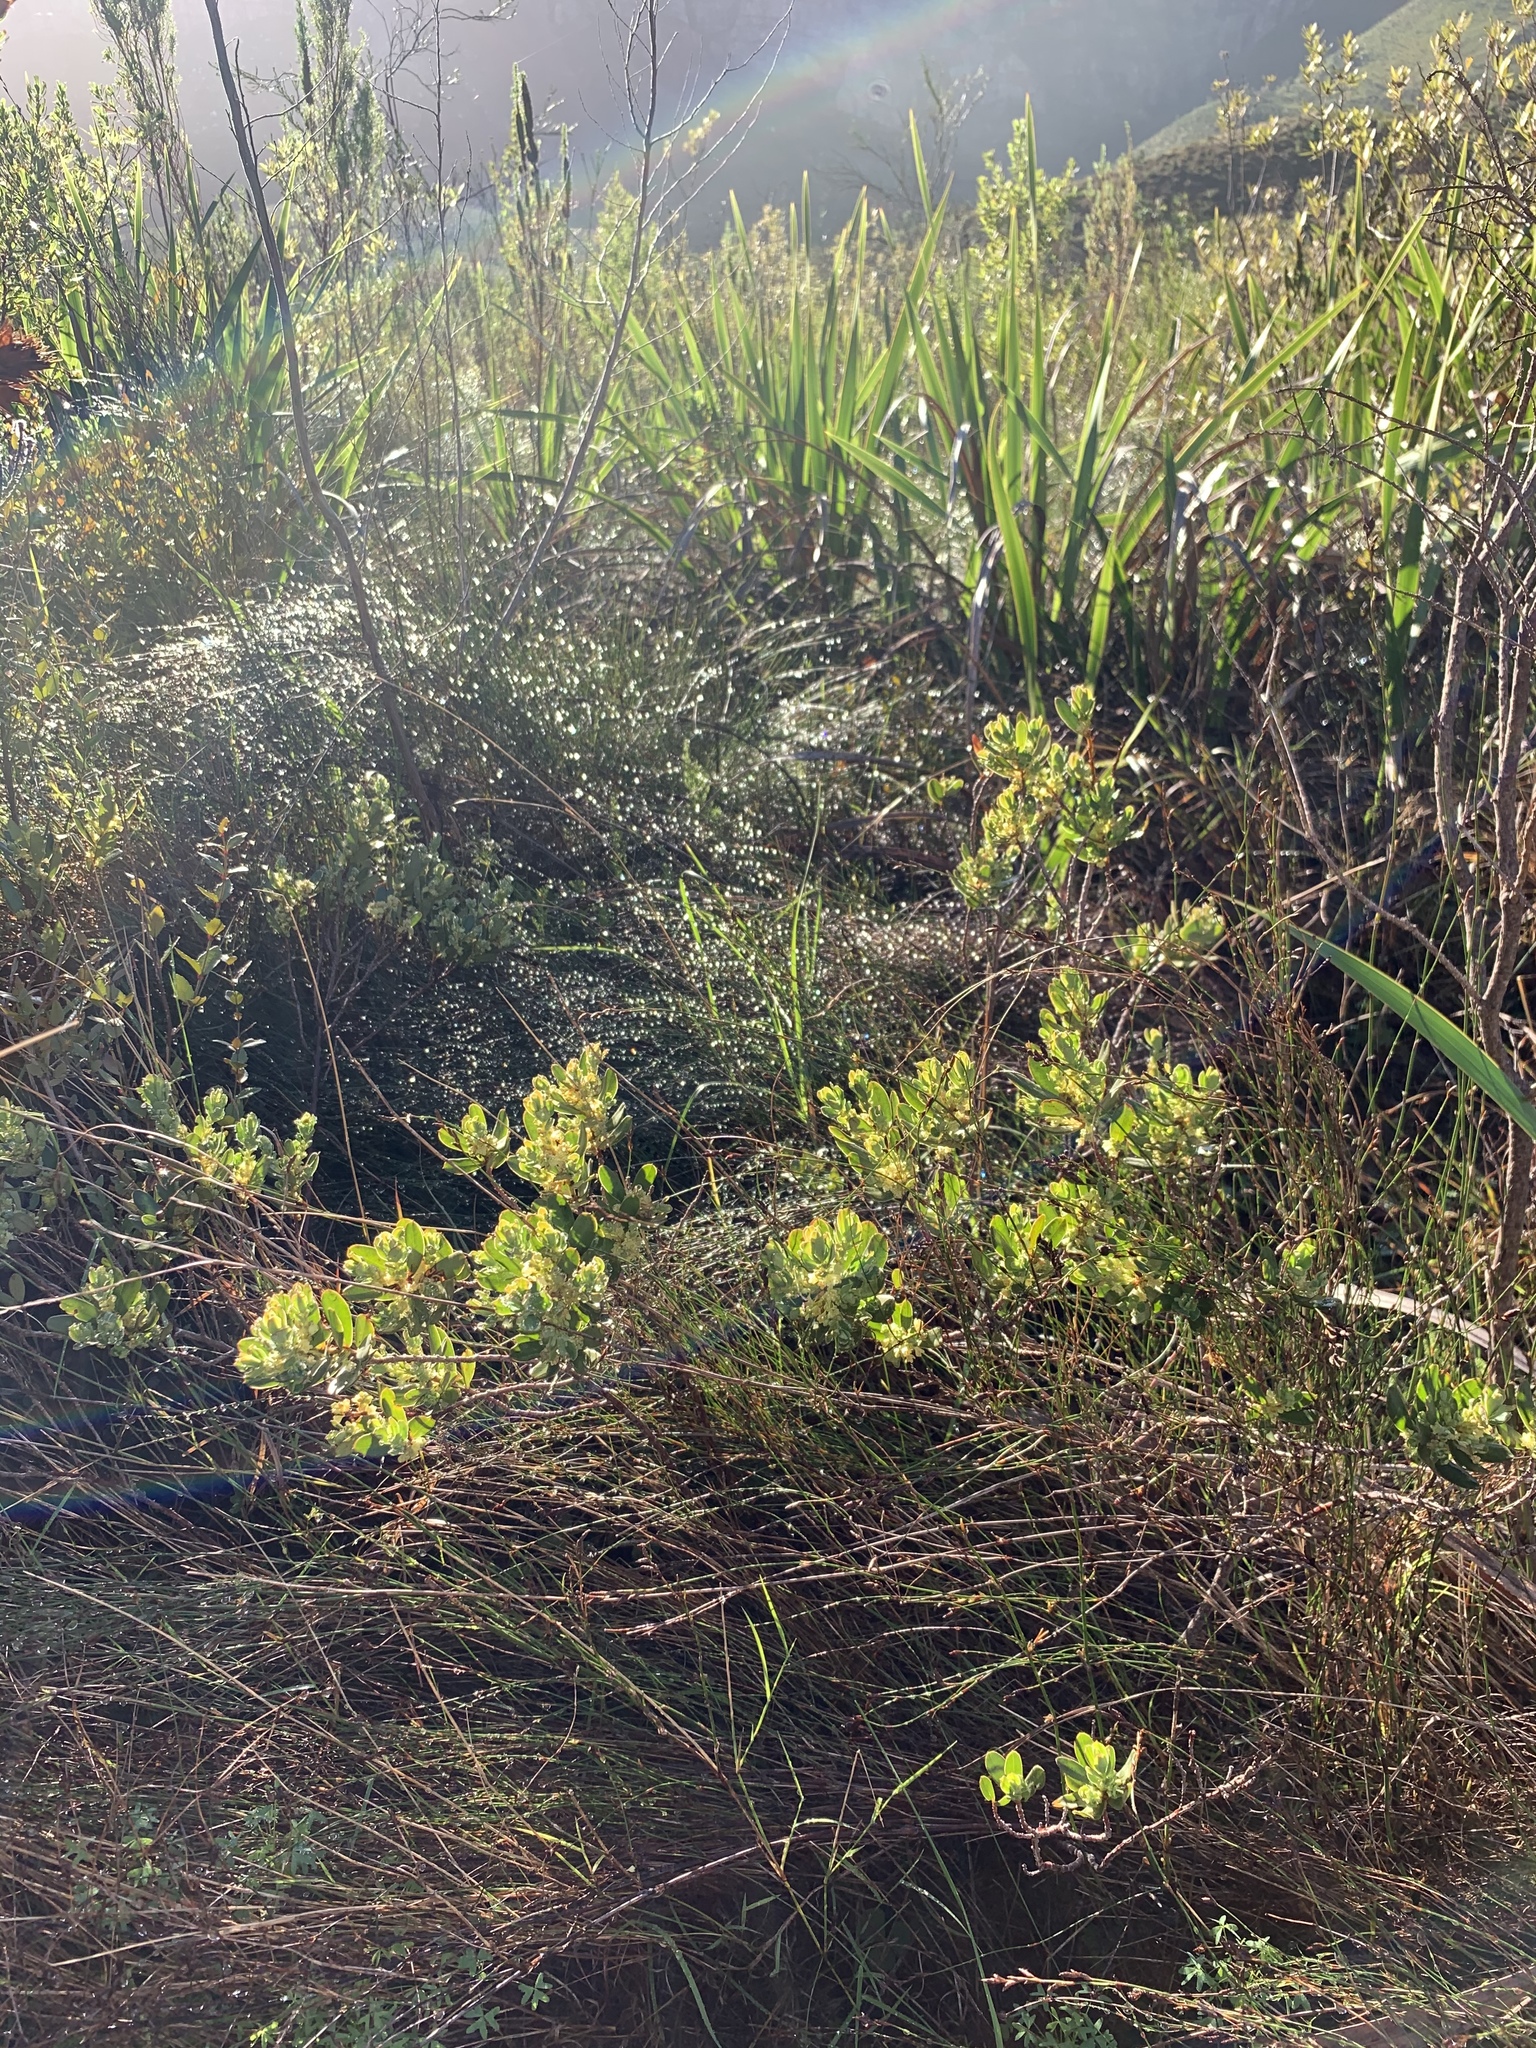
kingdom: Plantae
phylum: Tracheophyta
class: Magnoliopsida
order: Malpighiales
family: Peraceae
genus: Clutia
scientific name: Clutia alaternoides
